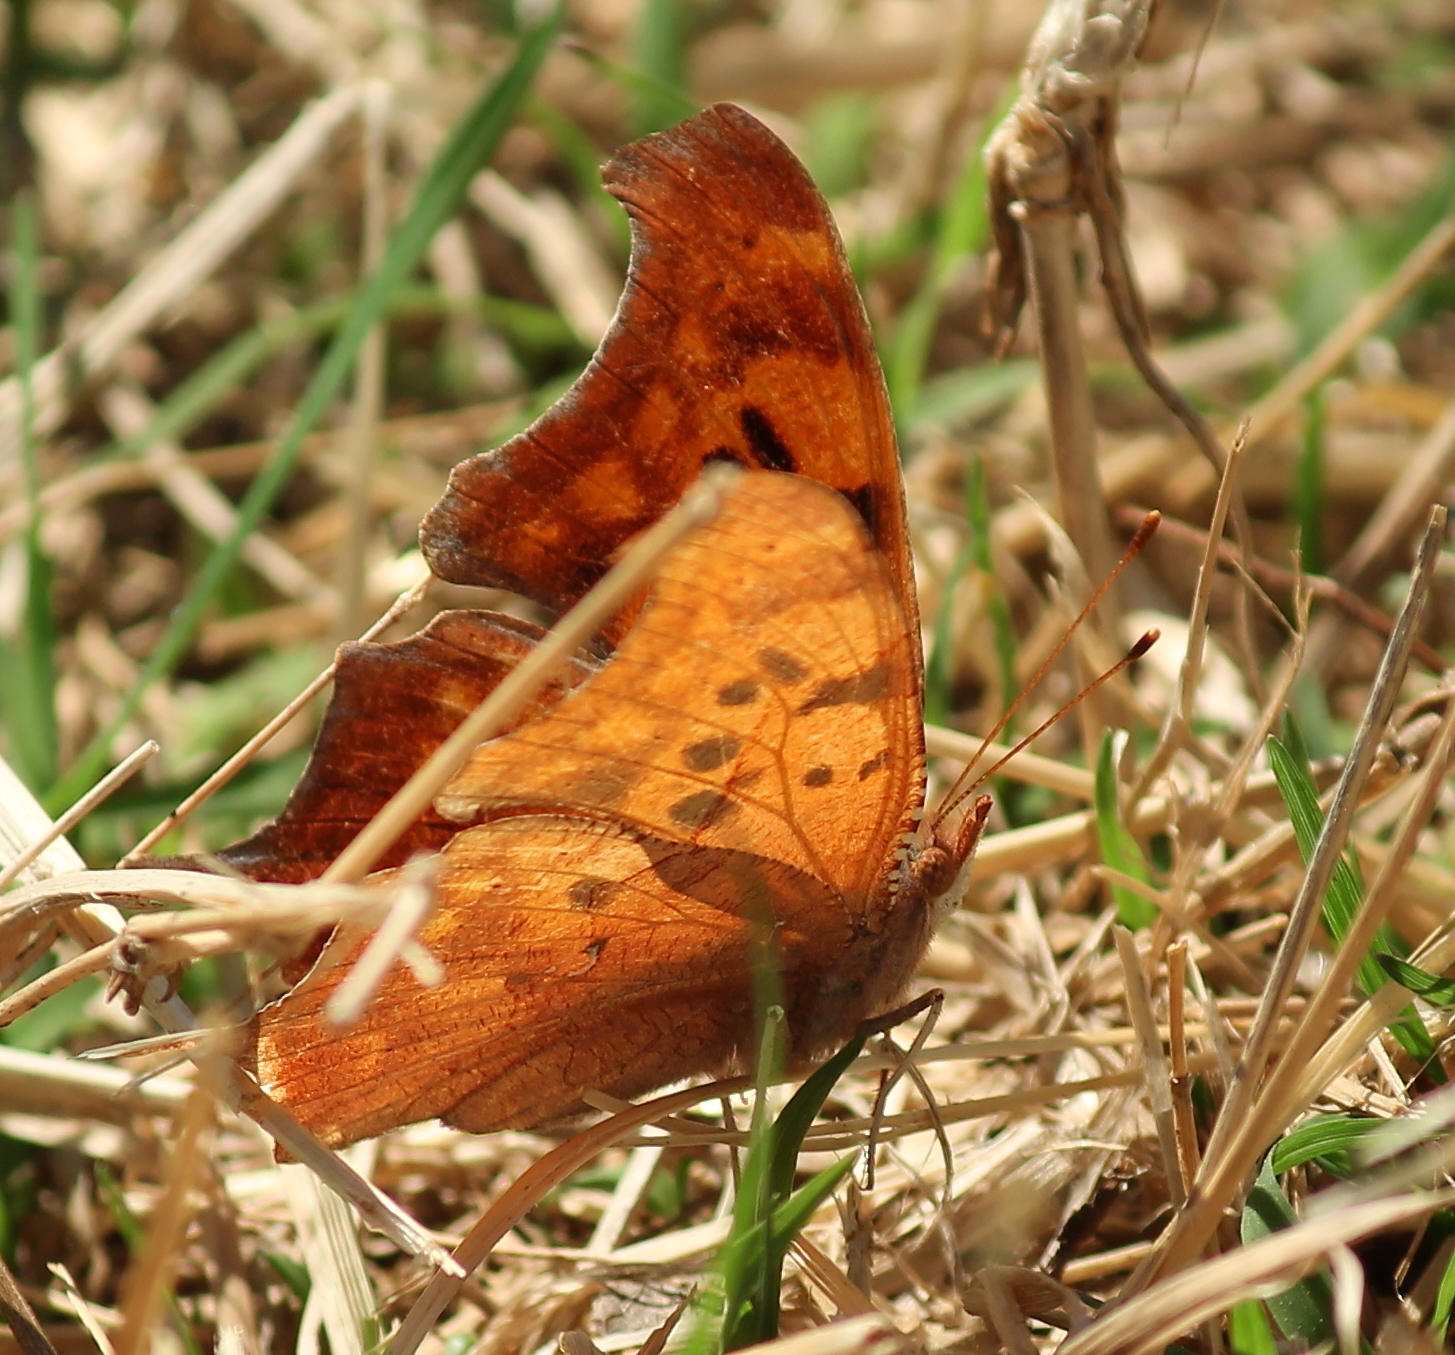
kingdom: Animalia
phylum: Arthropoda
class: Insecta
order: Lepidoptera
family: Nymphalidae
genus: Polygonia
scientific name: Polygonia interrogationis
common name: Question mark
